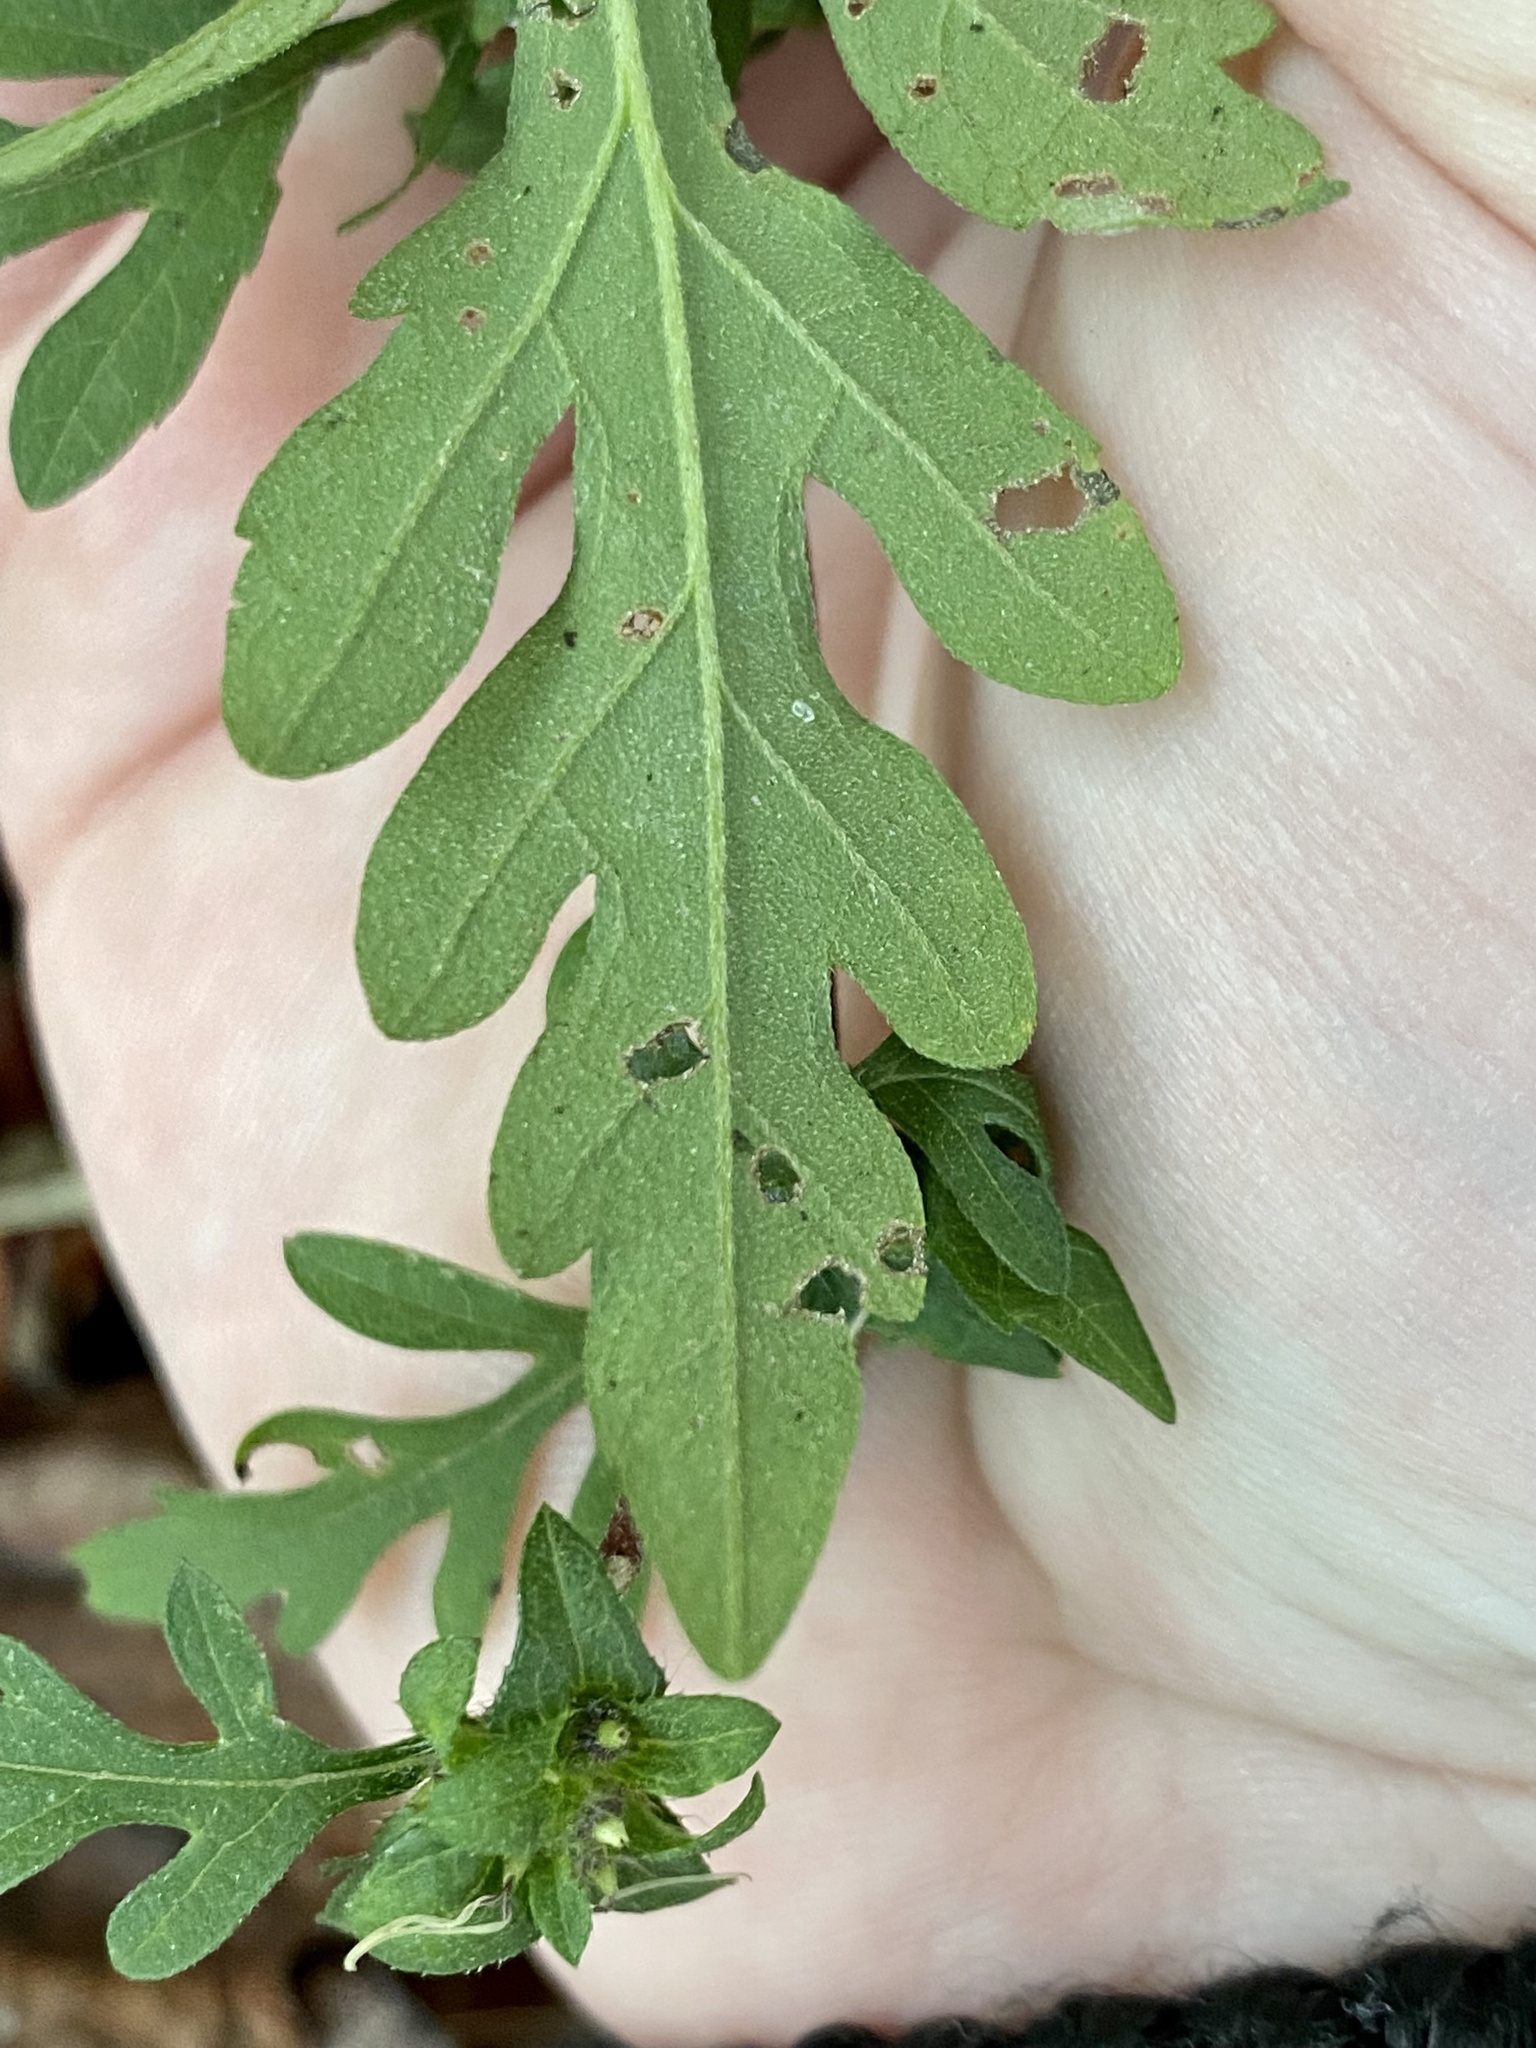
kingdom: Plantae
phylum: Tracheophyta
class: Magnoliopsida
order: Asterales
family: Asteraceae
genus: Ambrosia
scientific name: Ambrosia artemisiifolia
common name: Annual ragweed
